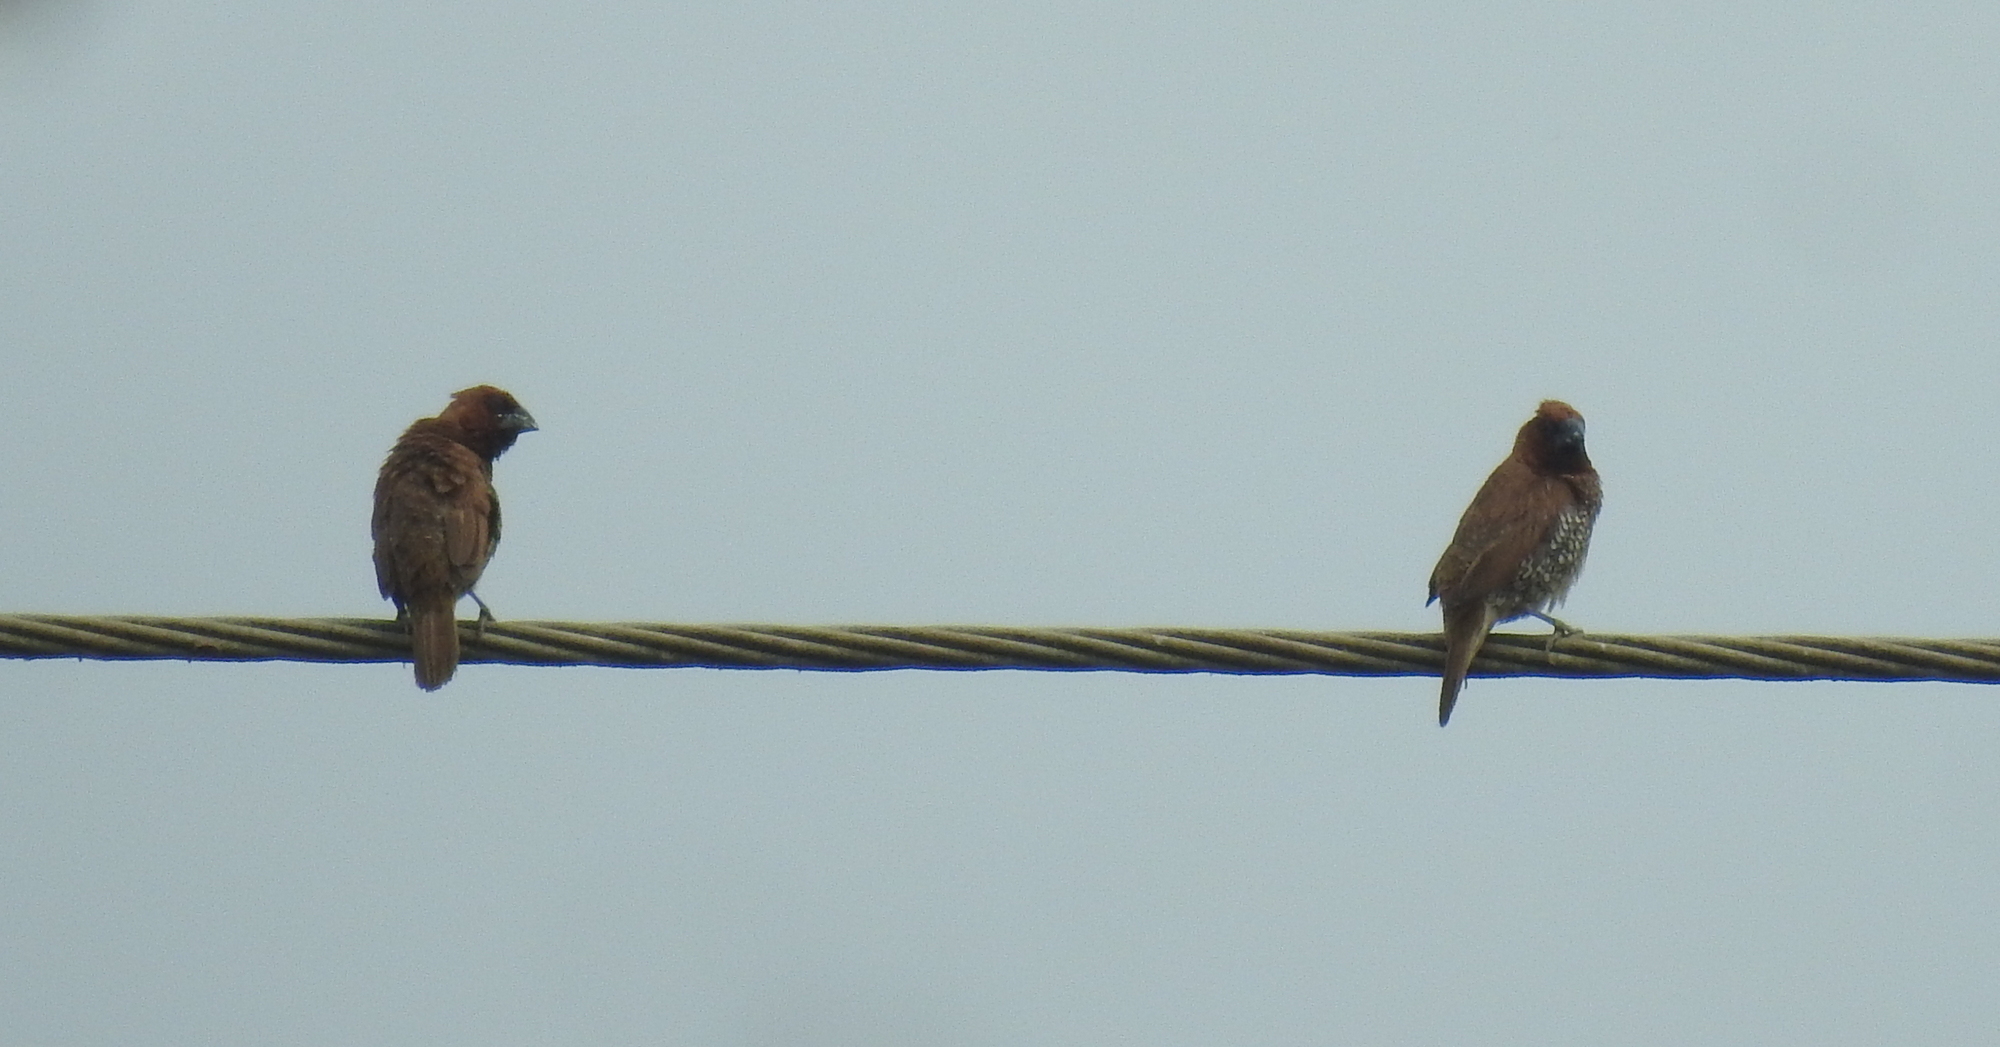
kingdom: Animalia
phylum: Chordata
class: Aves
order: Passeriformes
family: Estrildidae
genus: Lonchura
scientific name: Lonchura punctulata
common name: Scaly-breasted munia
